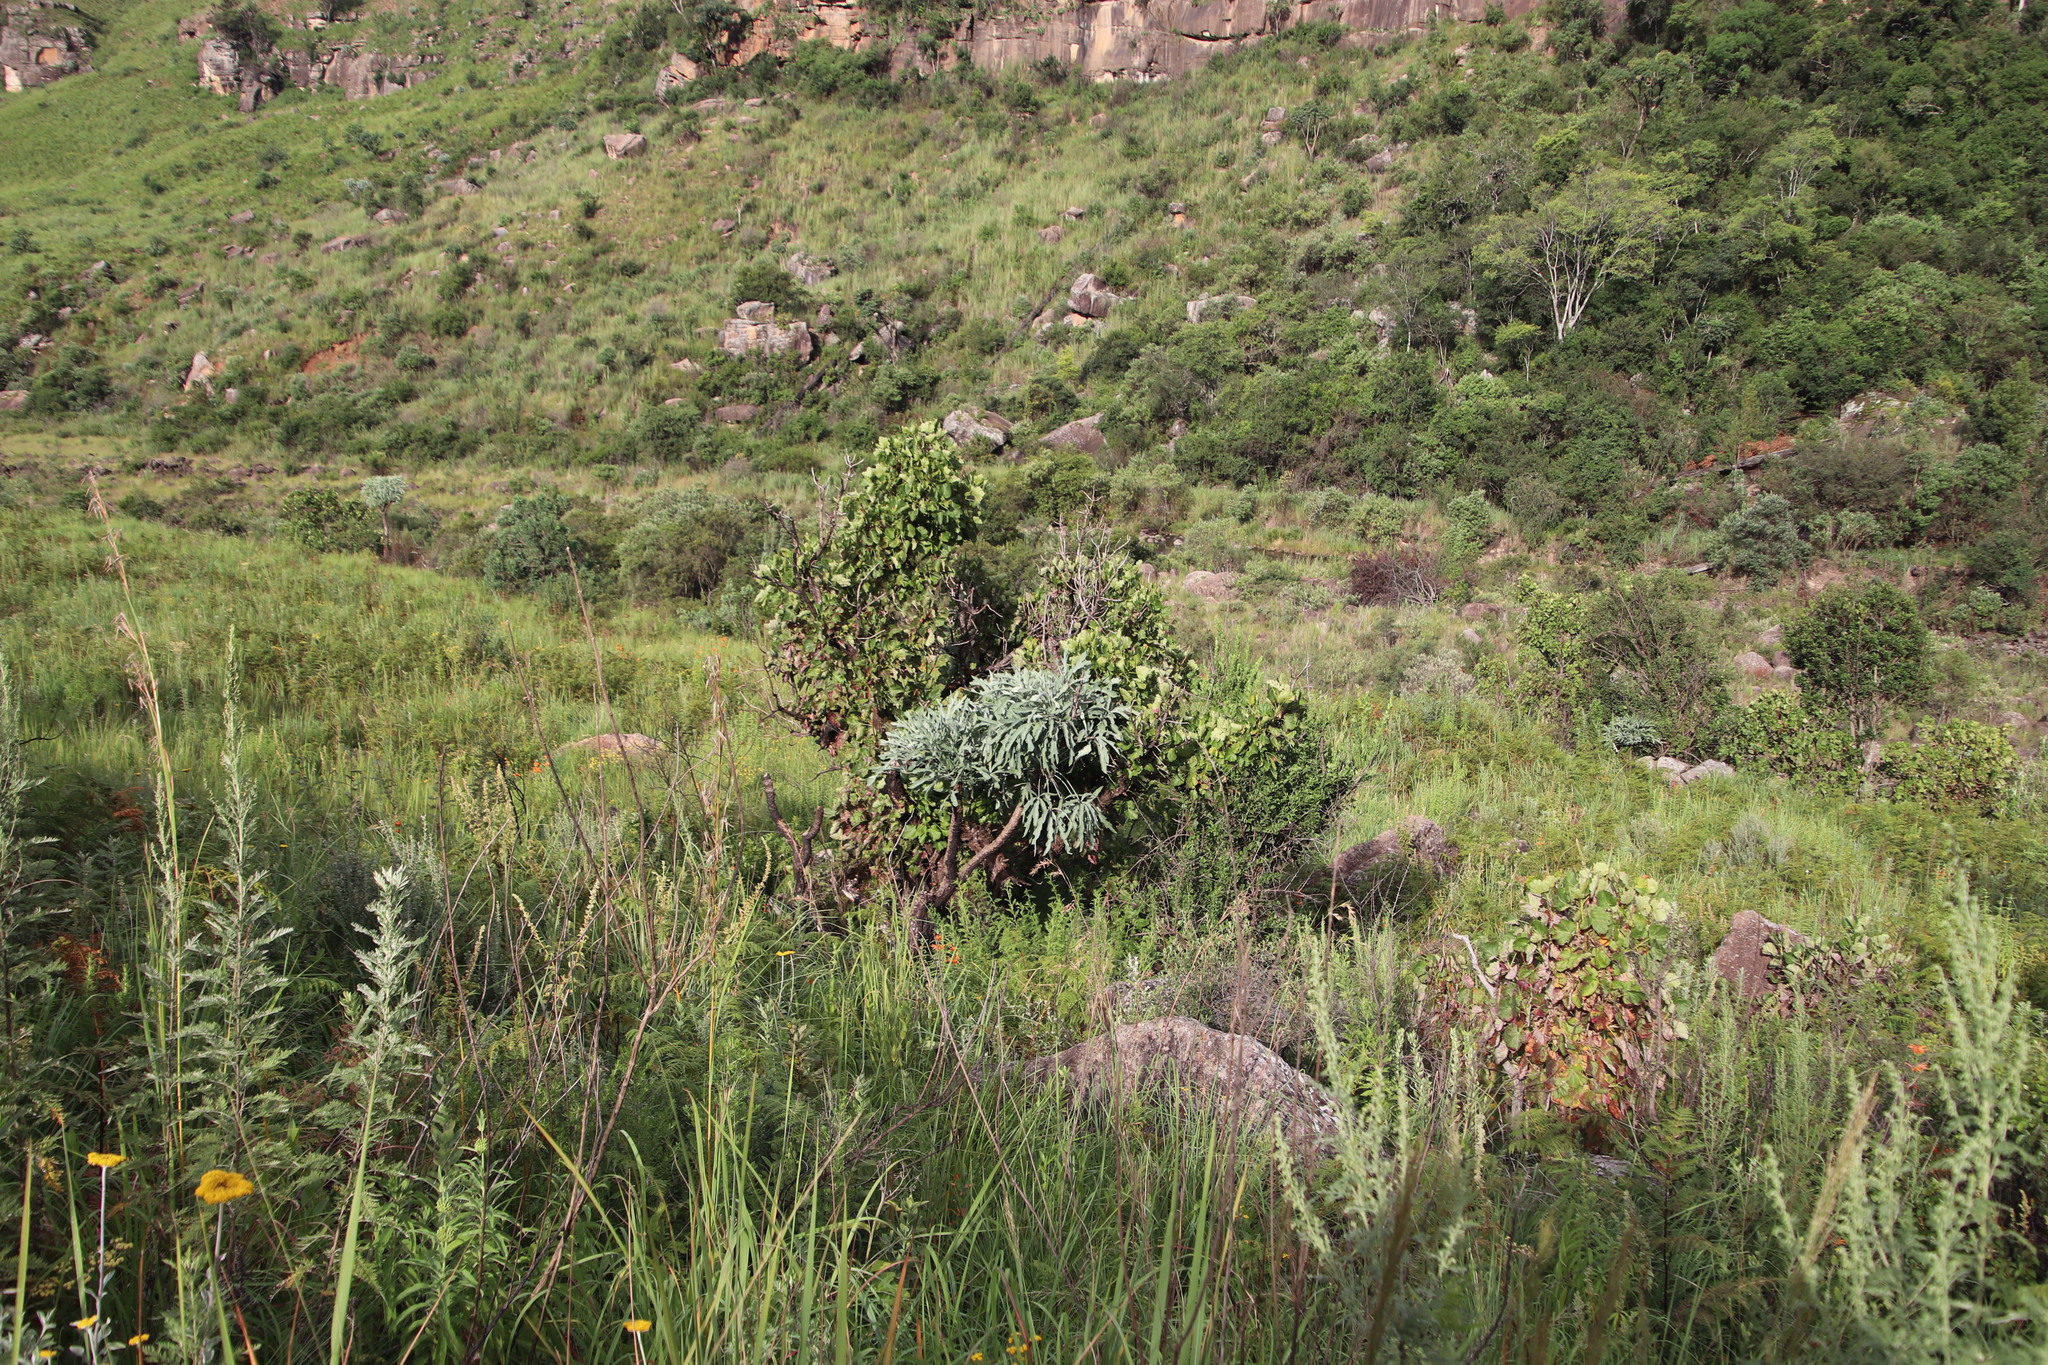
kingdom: Plantae
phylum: Tracheophyta
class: Magnoliopsida
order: Apiales
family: Araliaceae
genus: Cussonia
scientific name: Cussonia paniculata
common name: Cabbagetree
